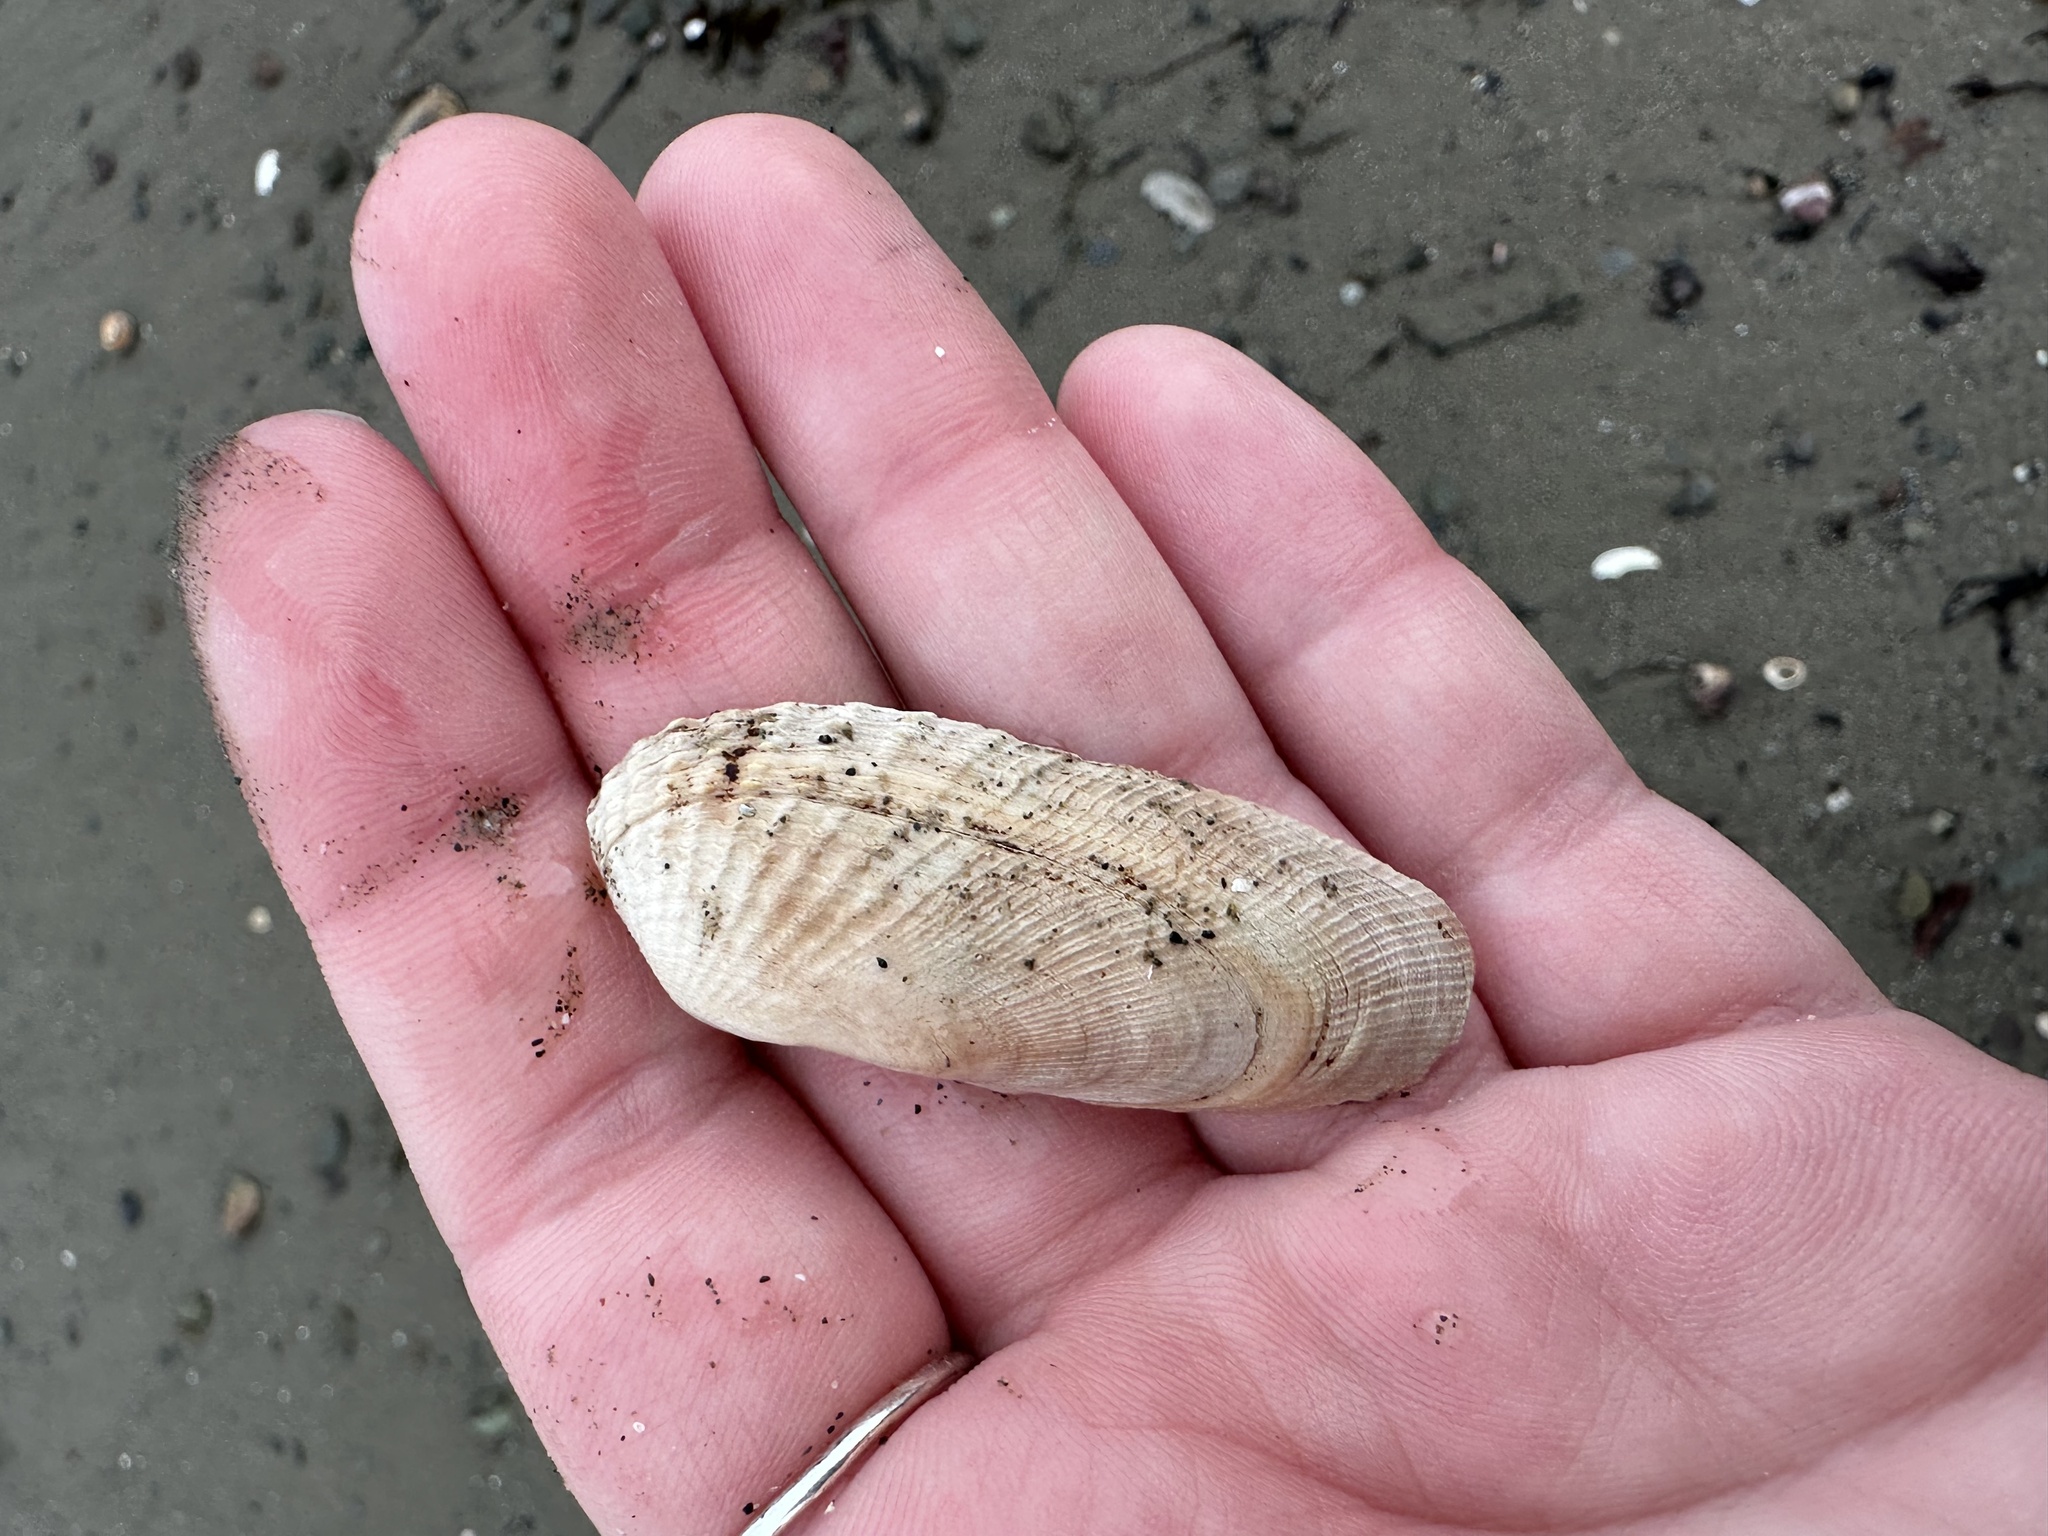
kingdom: Animalia
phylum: Mollusca
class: Bivalvia
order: Venerida
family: Veneridae
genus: Petricolaria
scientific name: Petricolaria pholadiformis
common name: American piddock
